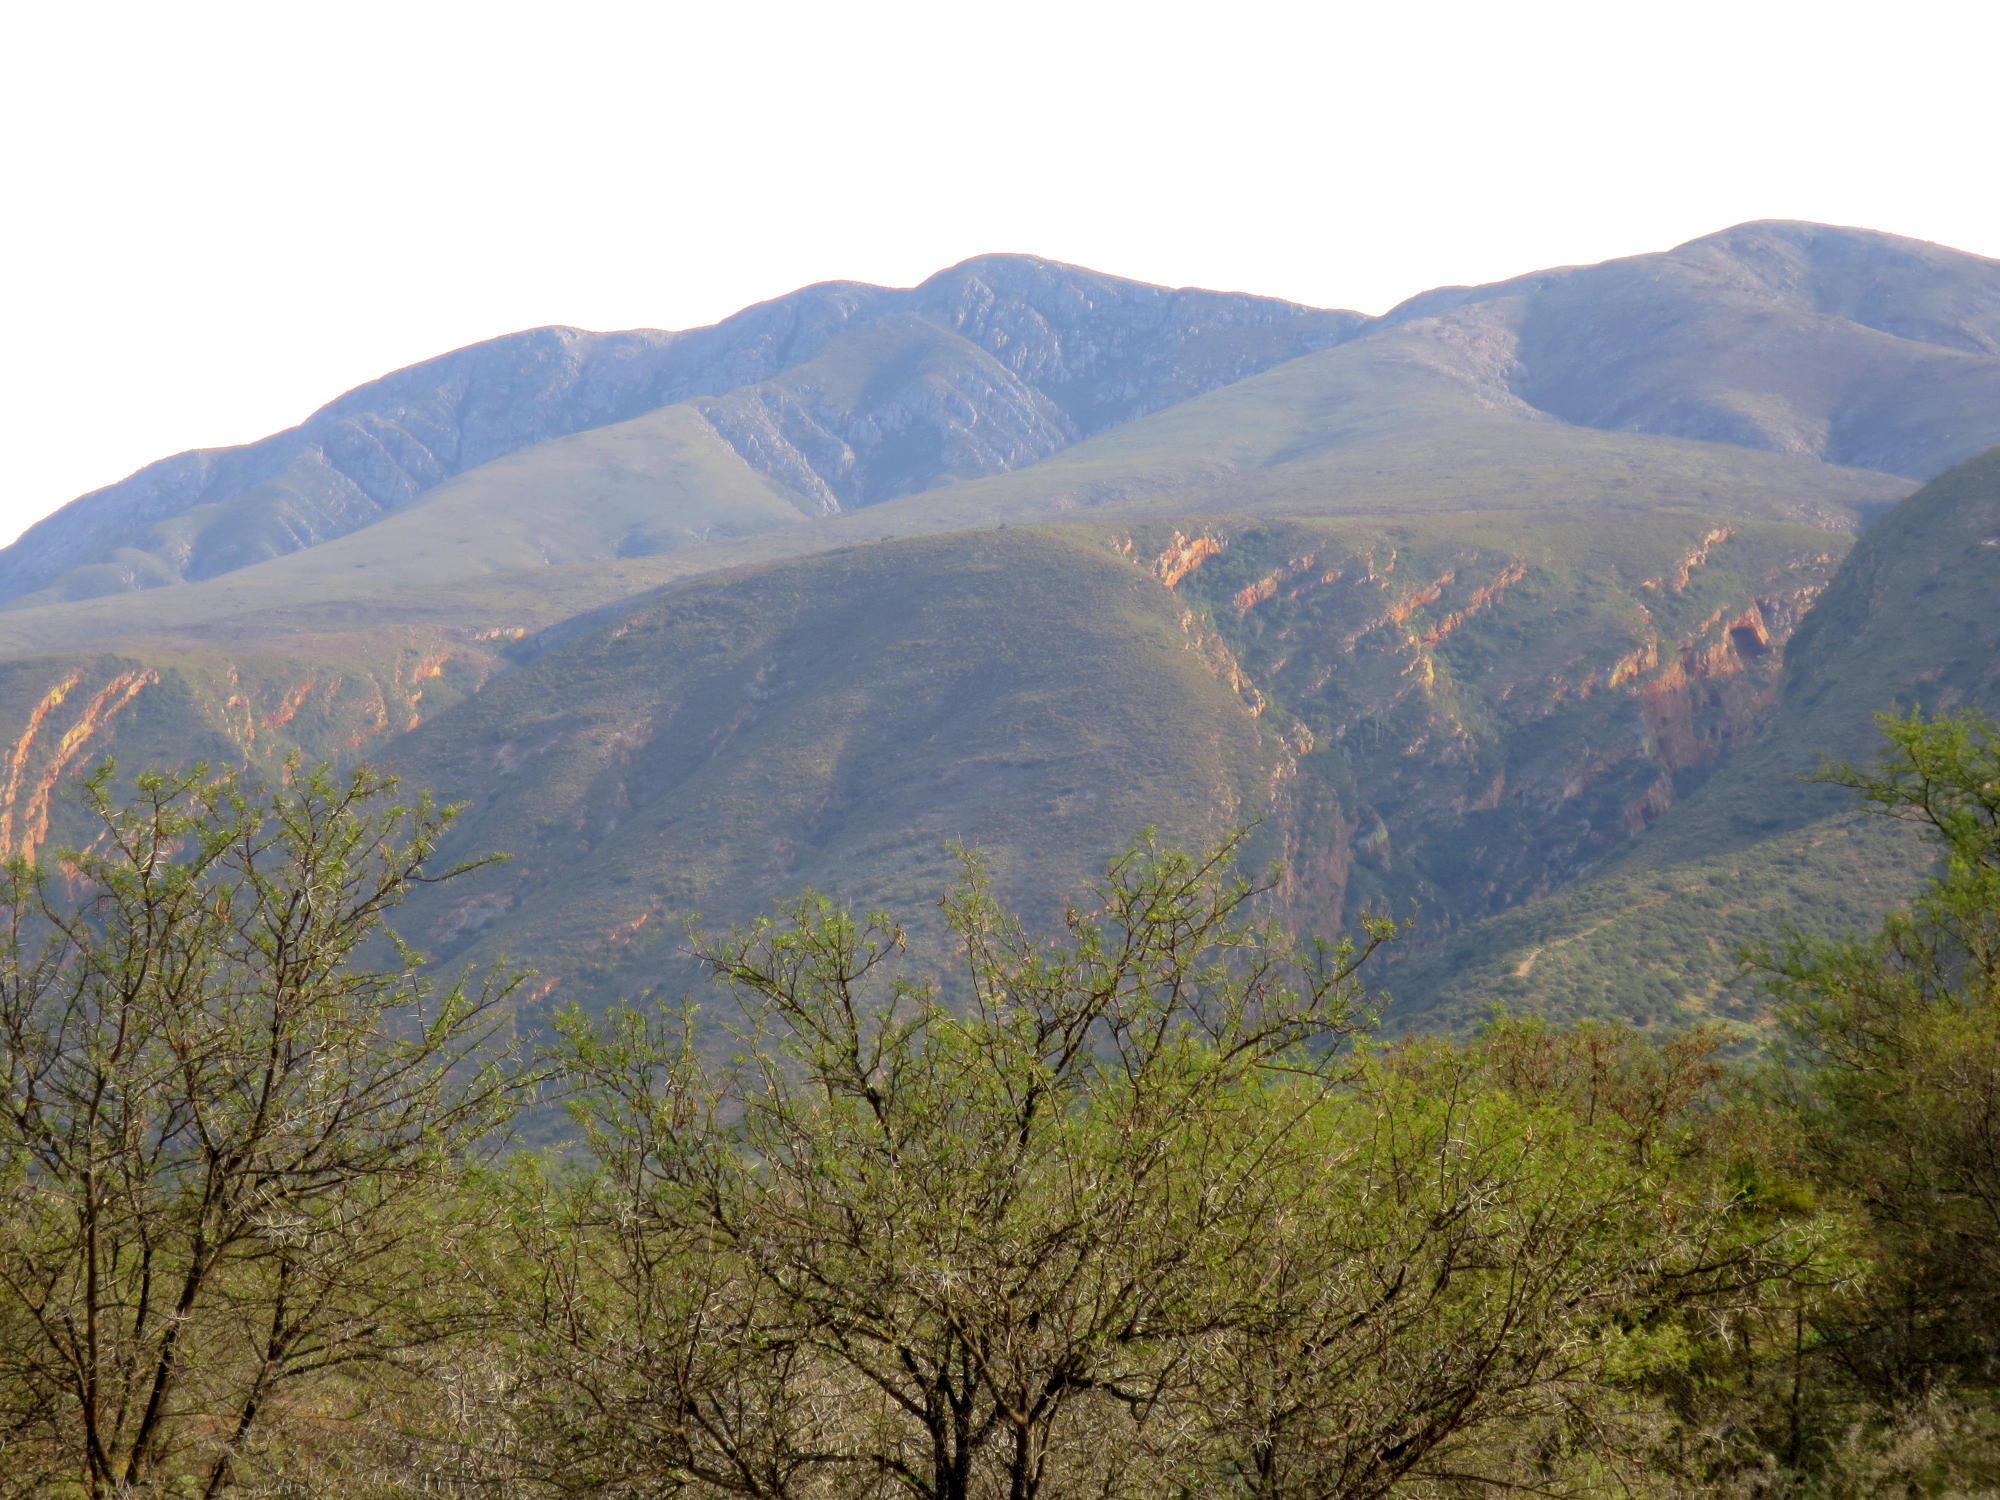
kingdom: Plantae
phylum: Tracheophyta
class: Magnoliopsida
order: Fabales
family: Fabaceae
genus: Vachellia
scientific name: Vachellia karroo
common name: Sweet thorn
